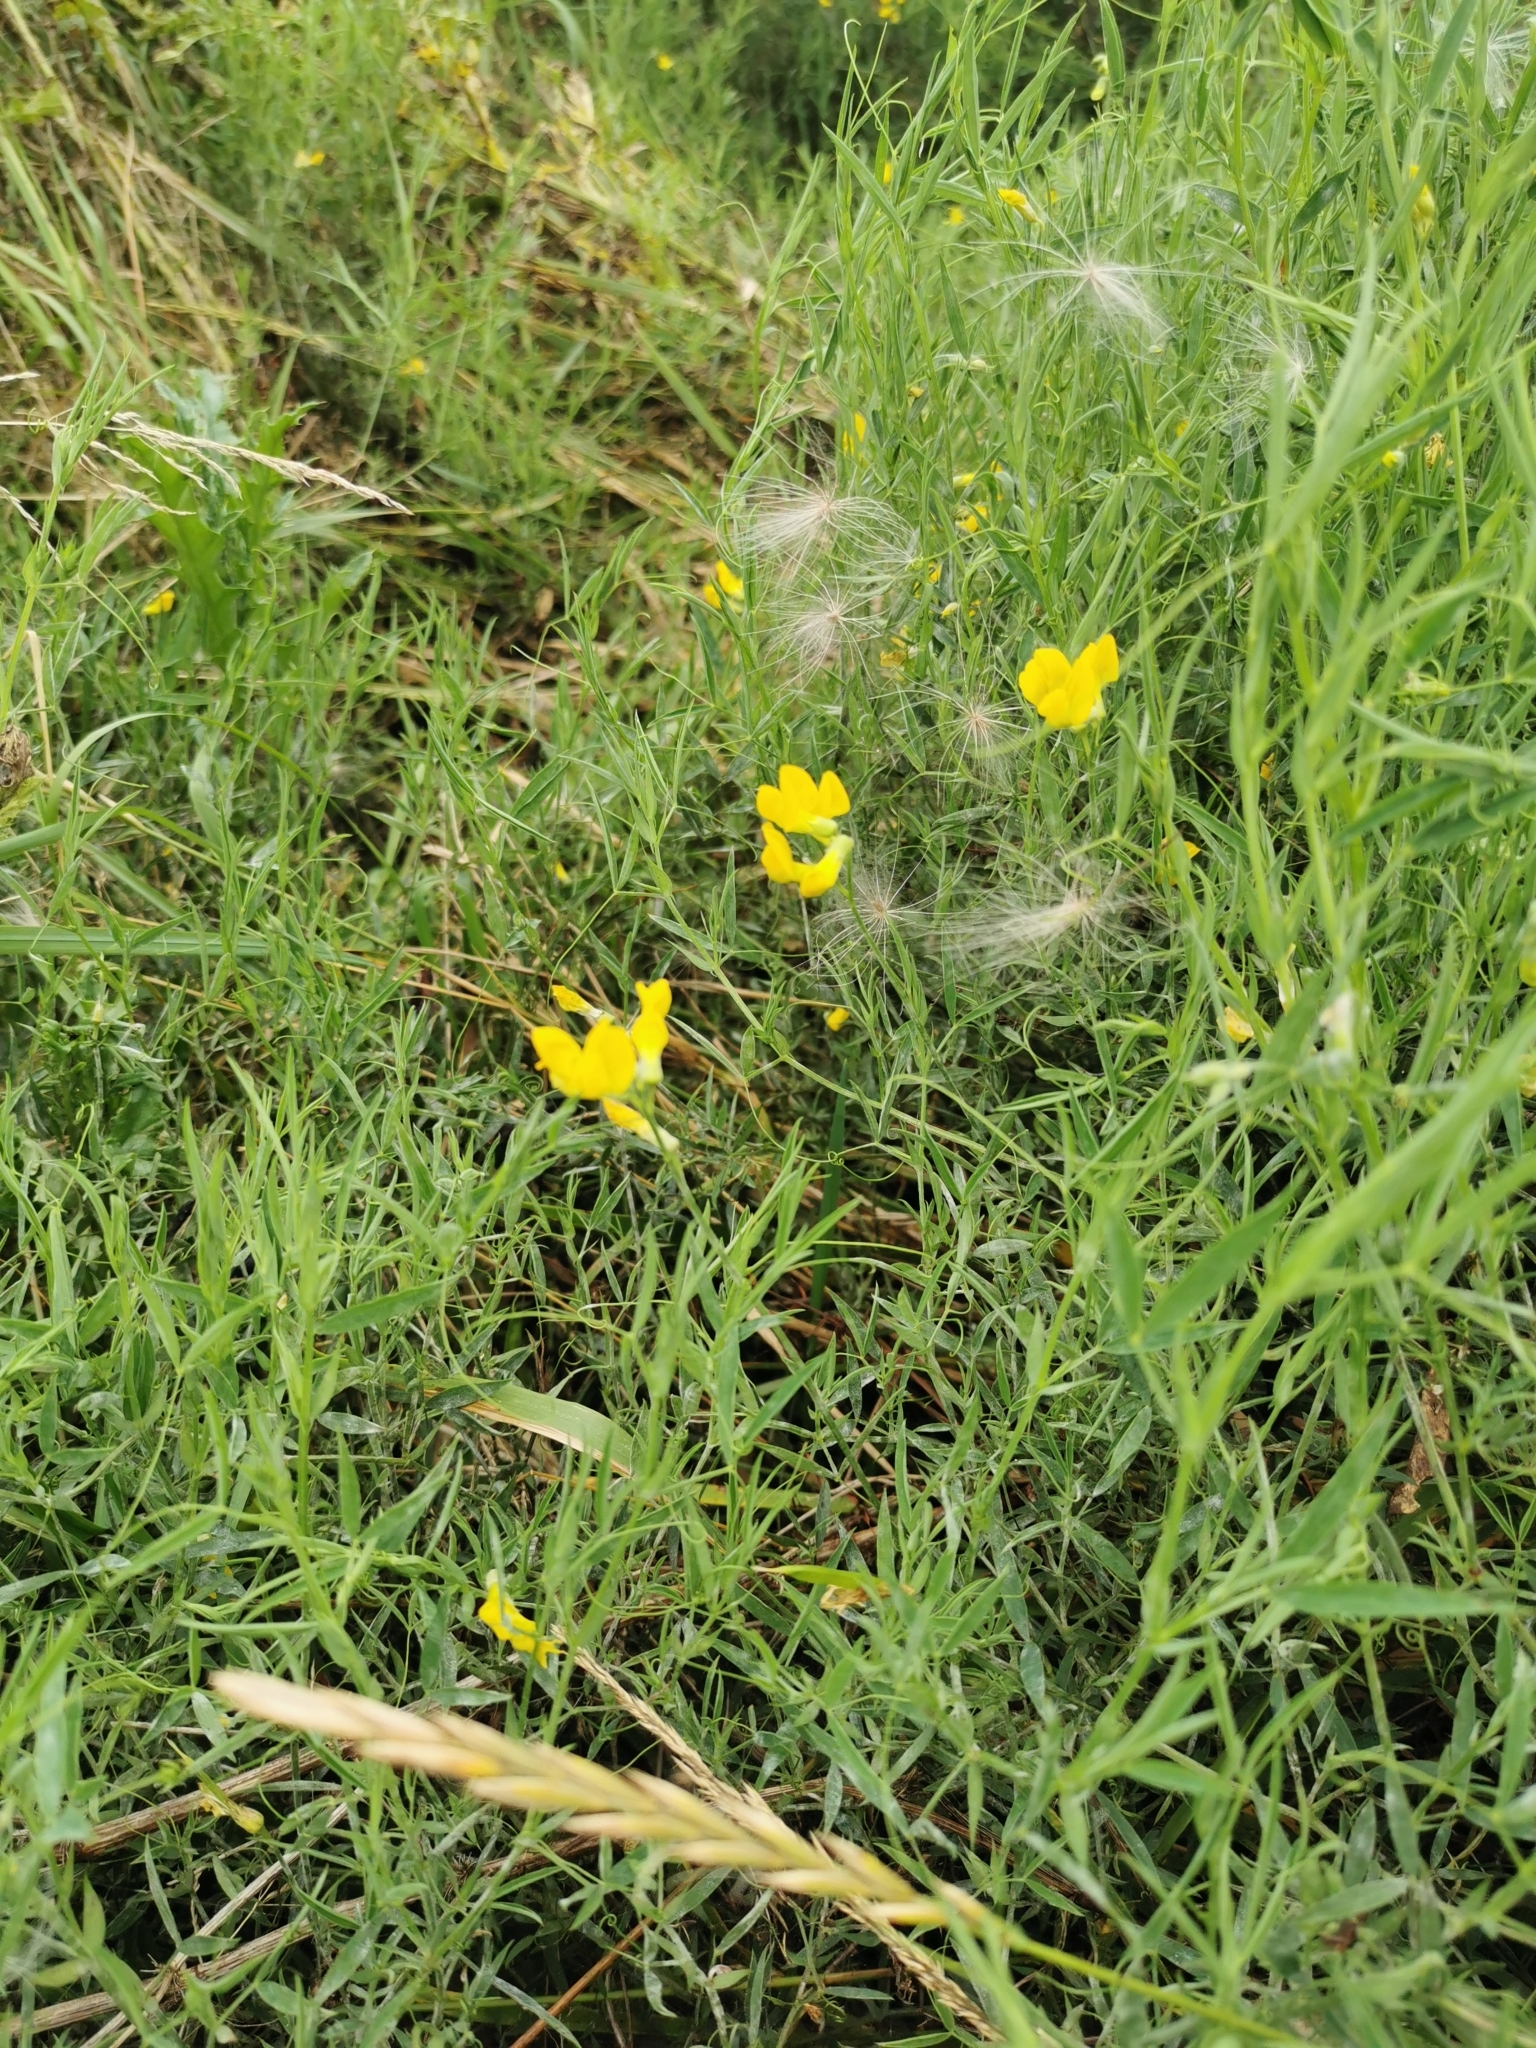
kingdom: Plantae
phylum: Tracheophyta
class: Magnoliopsida
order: Fabales
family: Fabaceae
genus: Lathyrus
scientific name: Lathyrus pratensis
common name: Meadow vetchling
